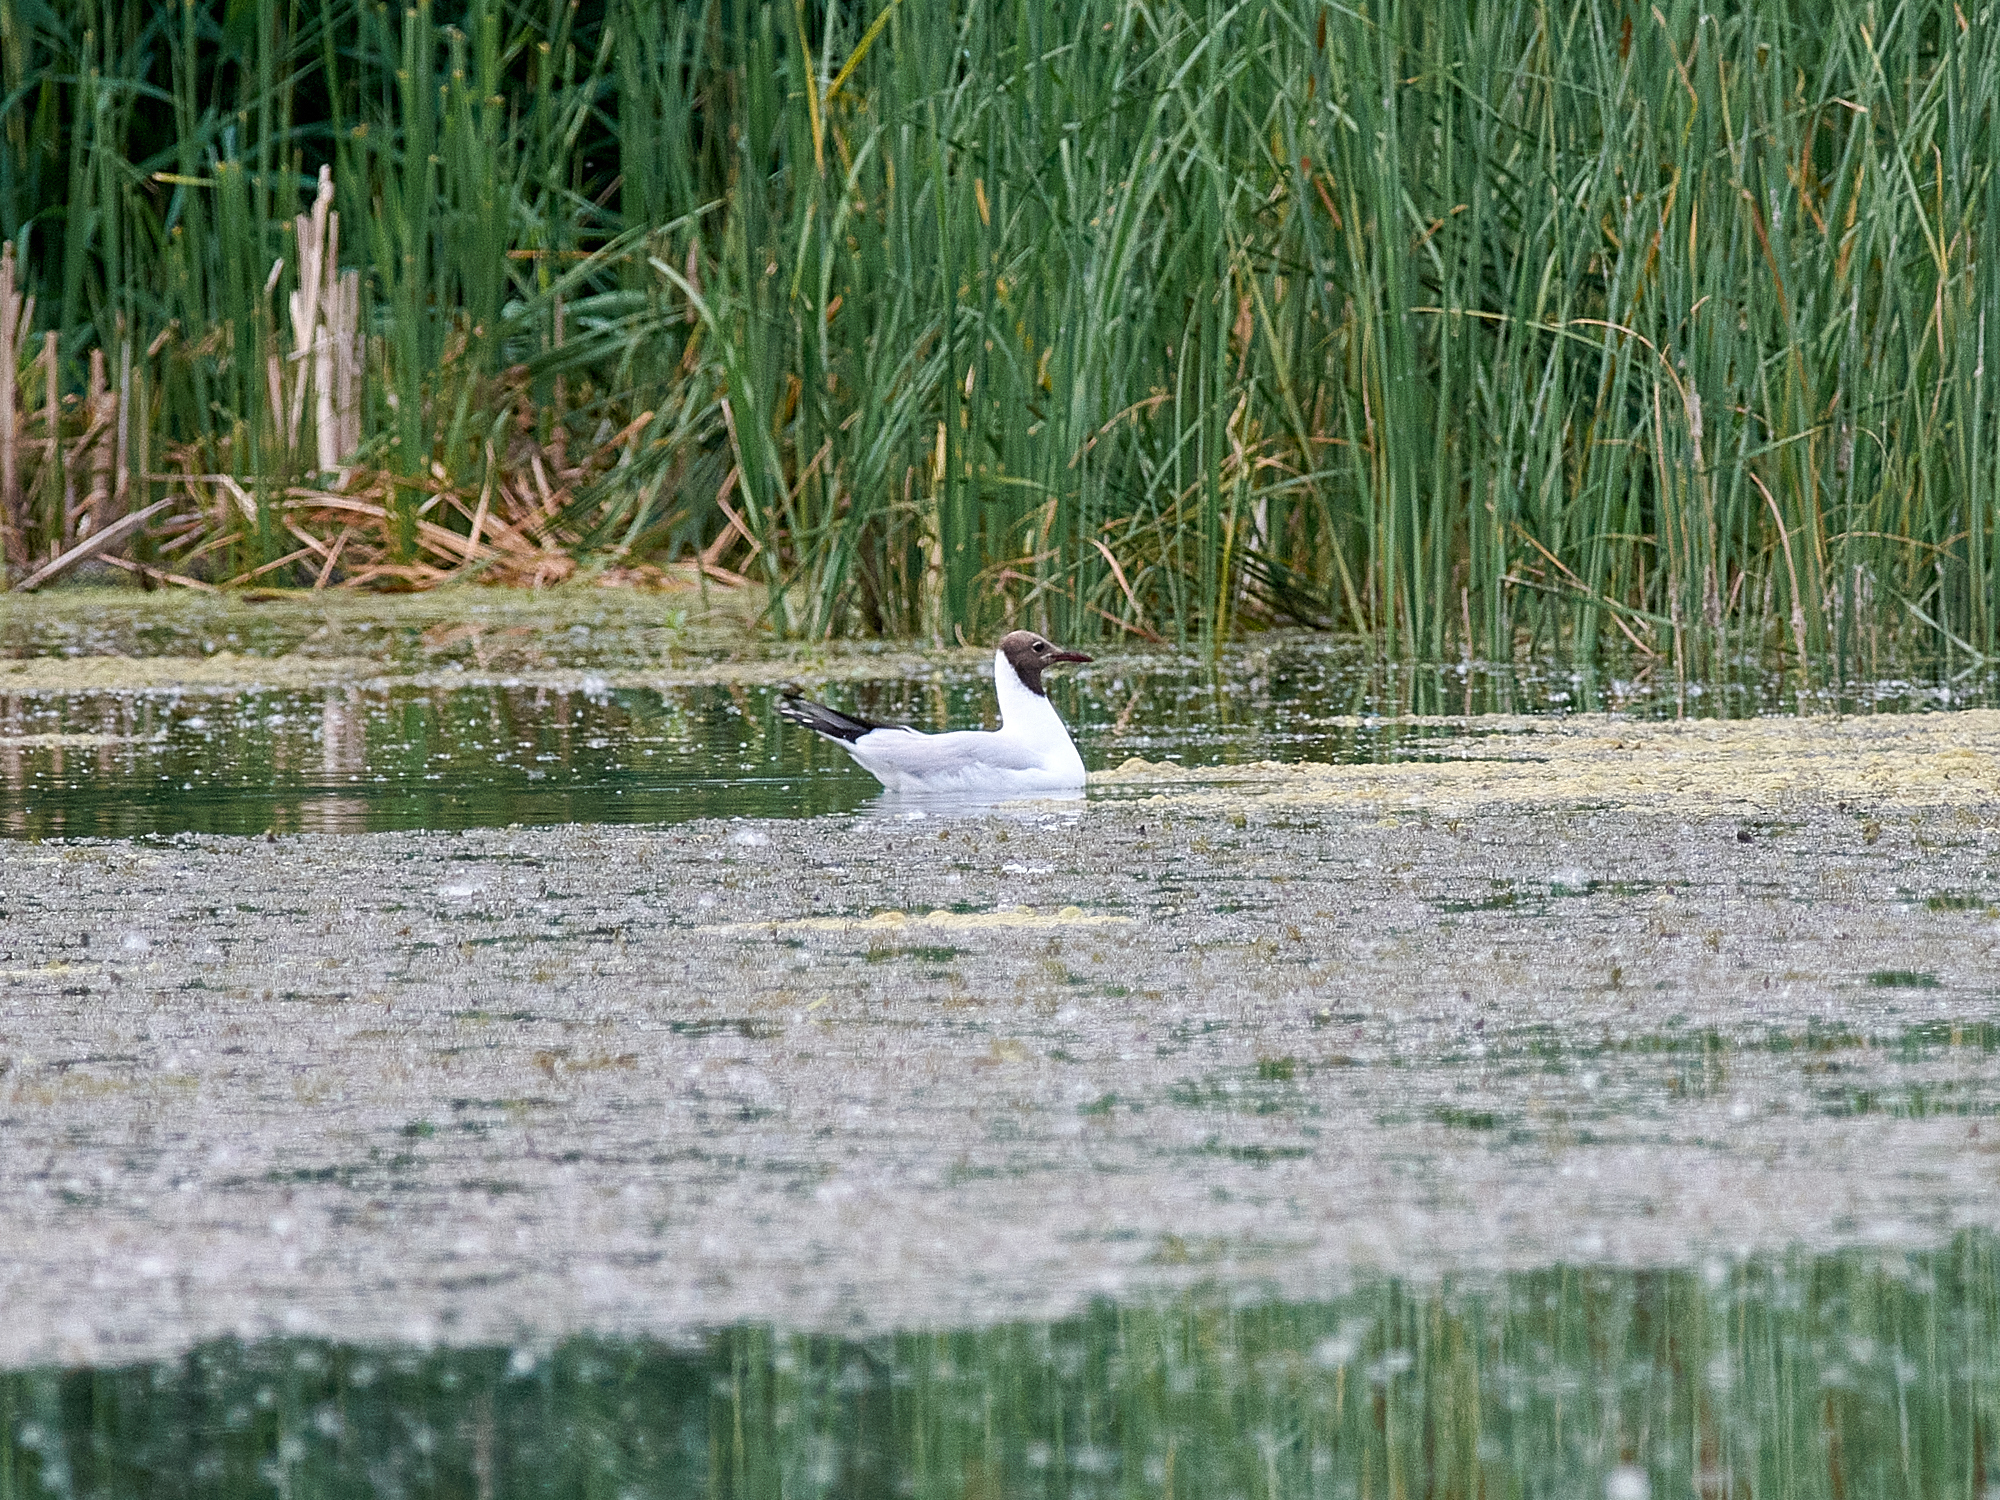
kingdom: Animalia
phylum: Chordata
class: Aves
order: Charadriiformes
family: Laridae
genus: Chroicocephalus
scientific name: Chroicocephalus ridibundus
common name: Black-headed gull
